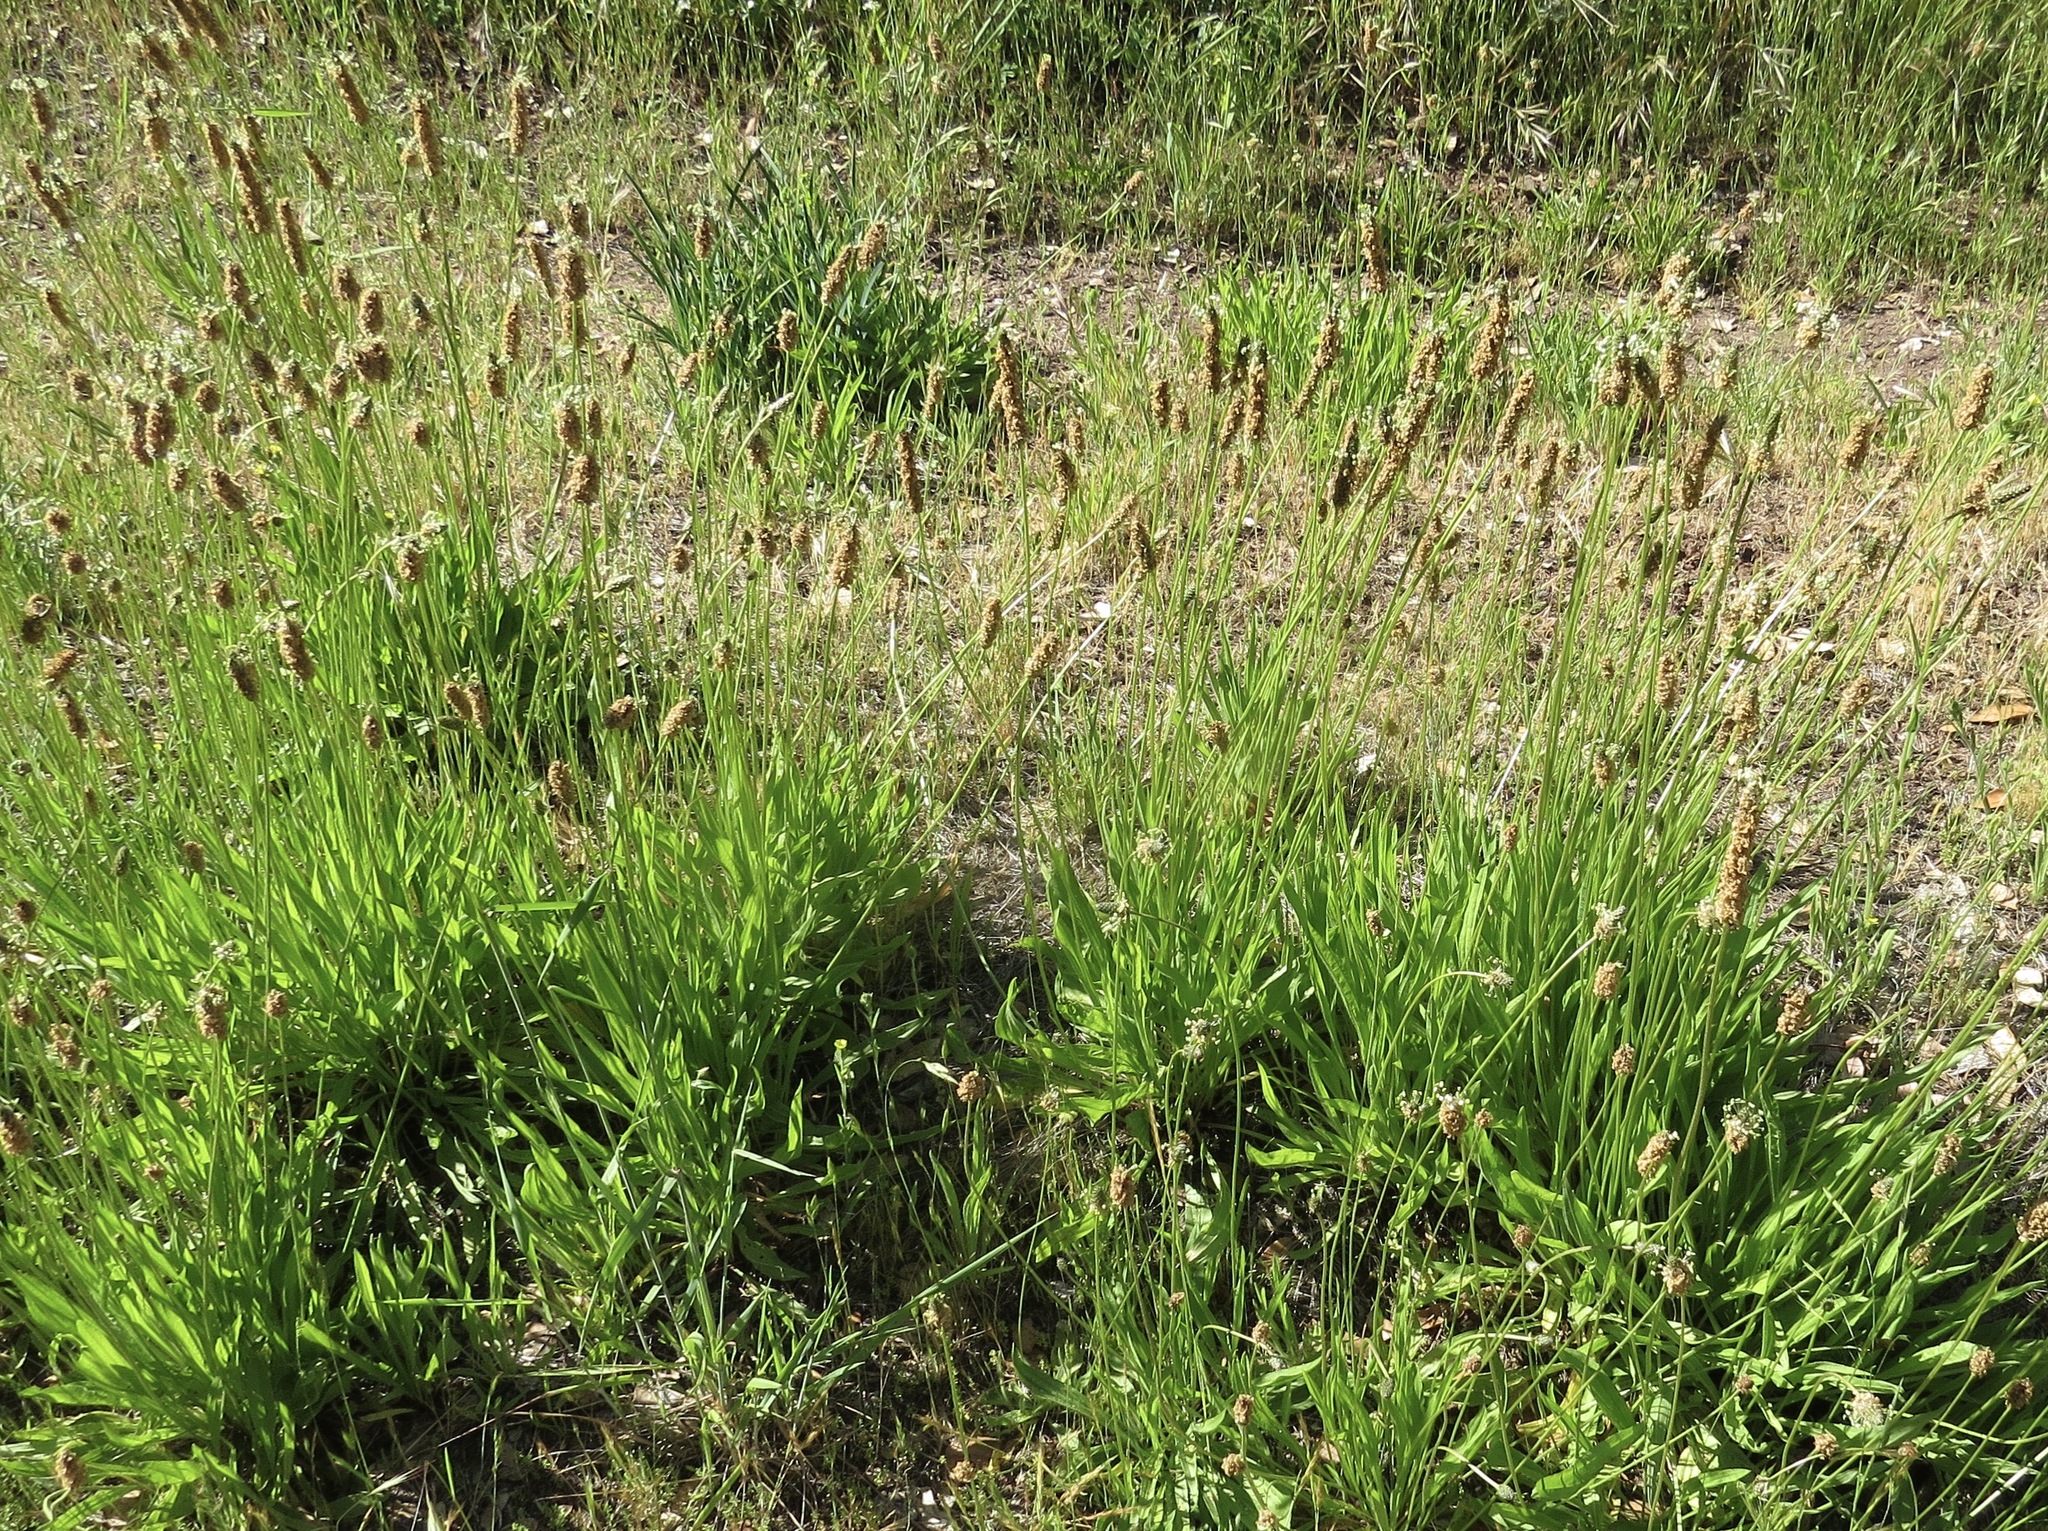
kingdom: Plantae
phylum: Tracheophyta
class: Magnoliopsida
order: Lamiales
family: Plantaginaceae
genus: Plantago
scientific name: Plantago lanceolata
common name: Ribwort plantain
